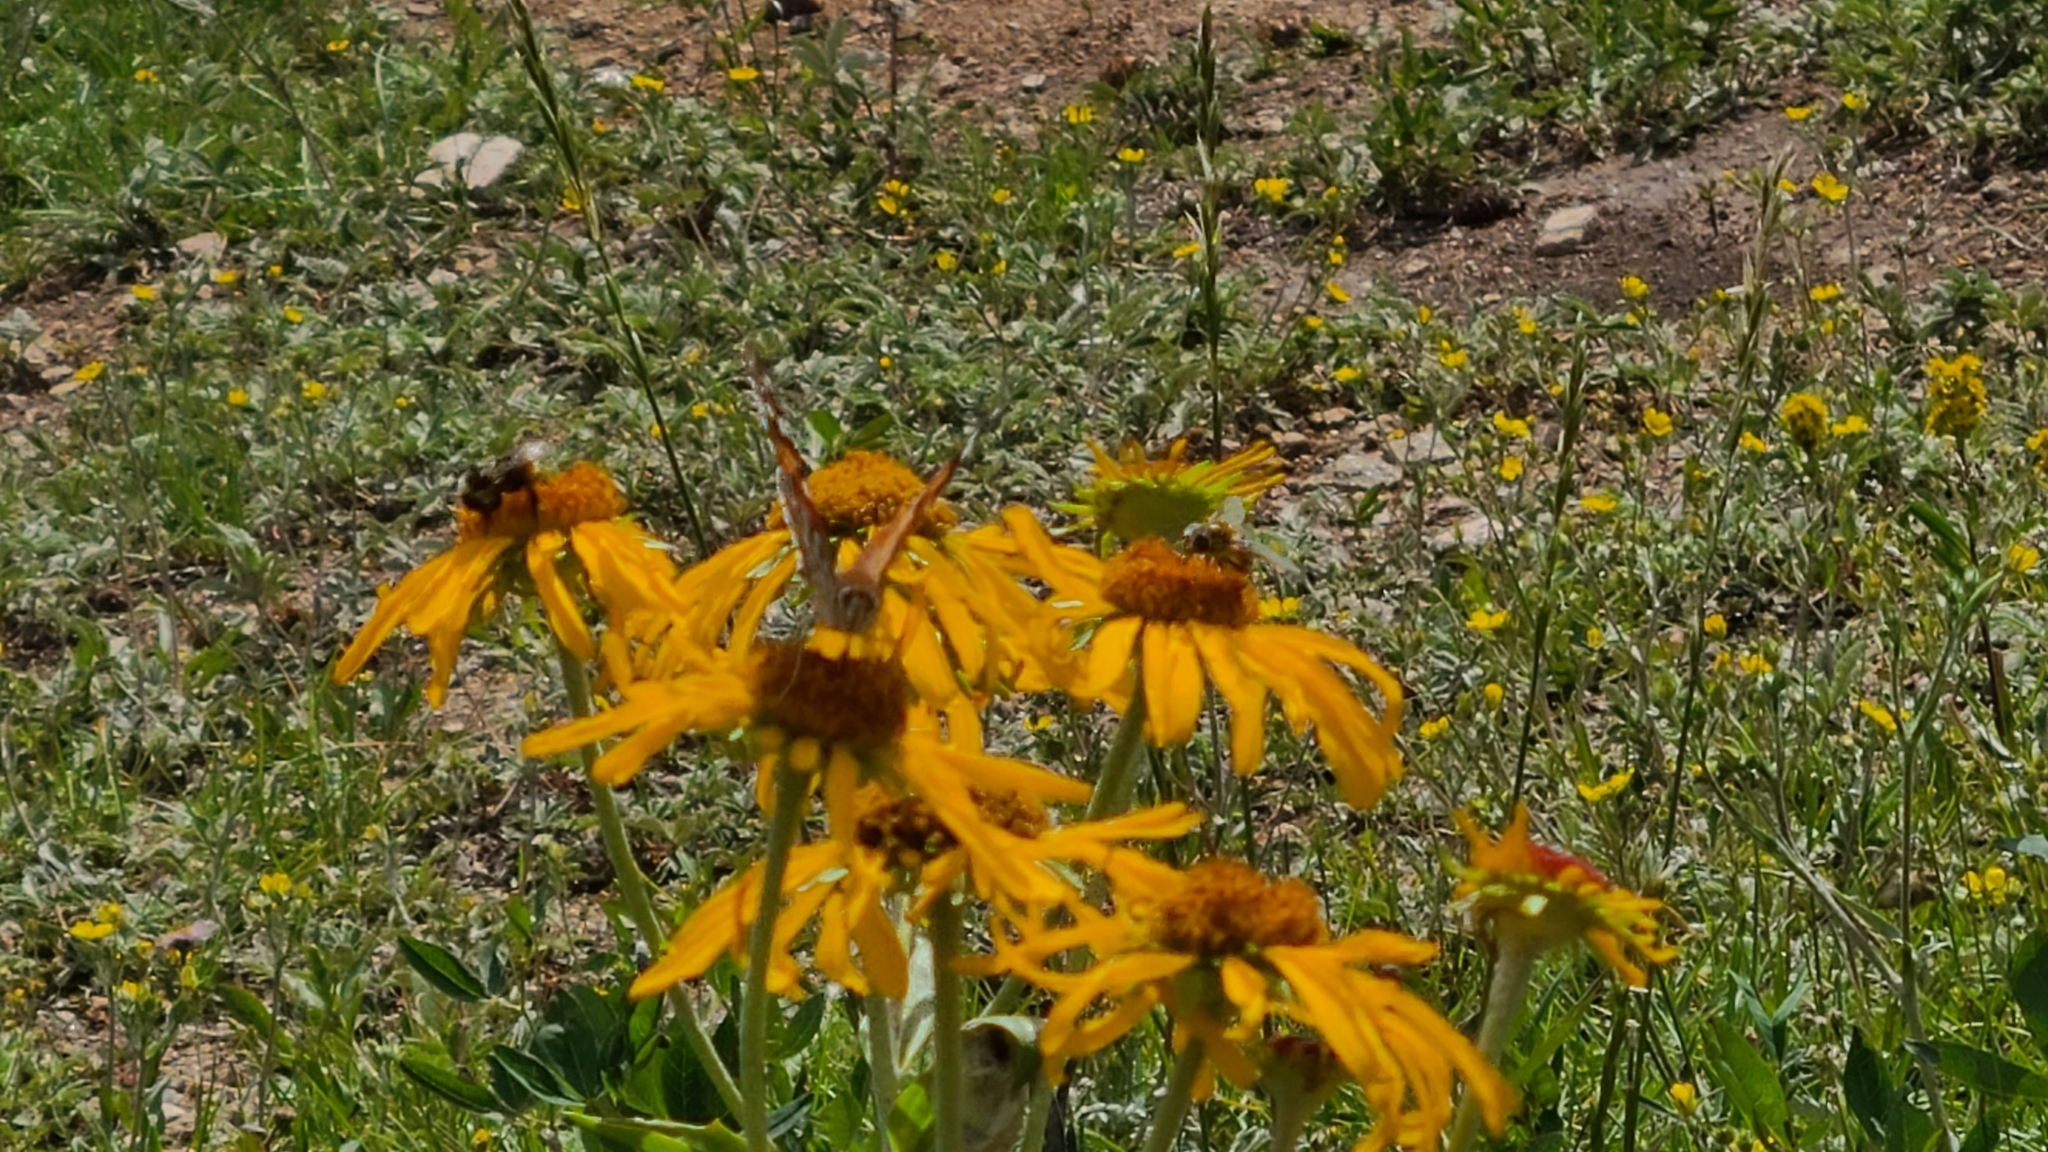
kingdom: Animalia
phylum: Arthropoda
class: Insecta
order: Lepidoptera
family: Nymphalidae
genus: Vanessa
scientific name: Vanessa cardui
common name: Painted lady
